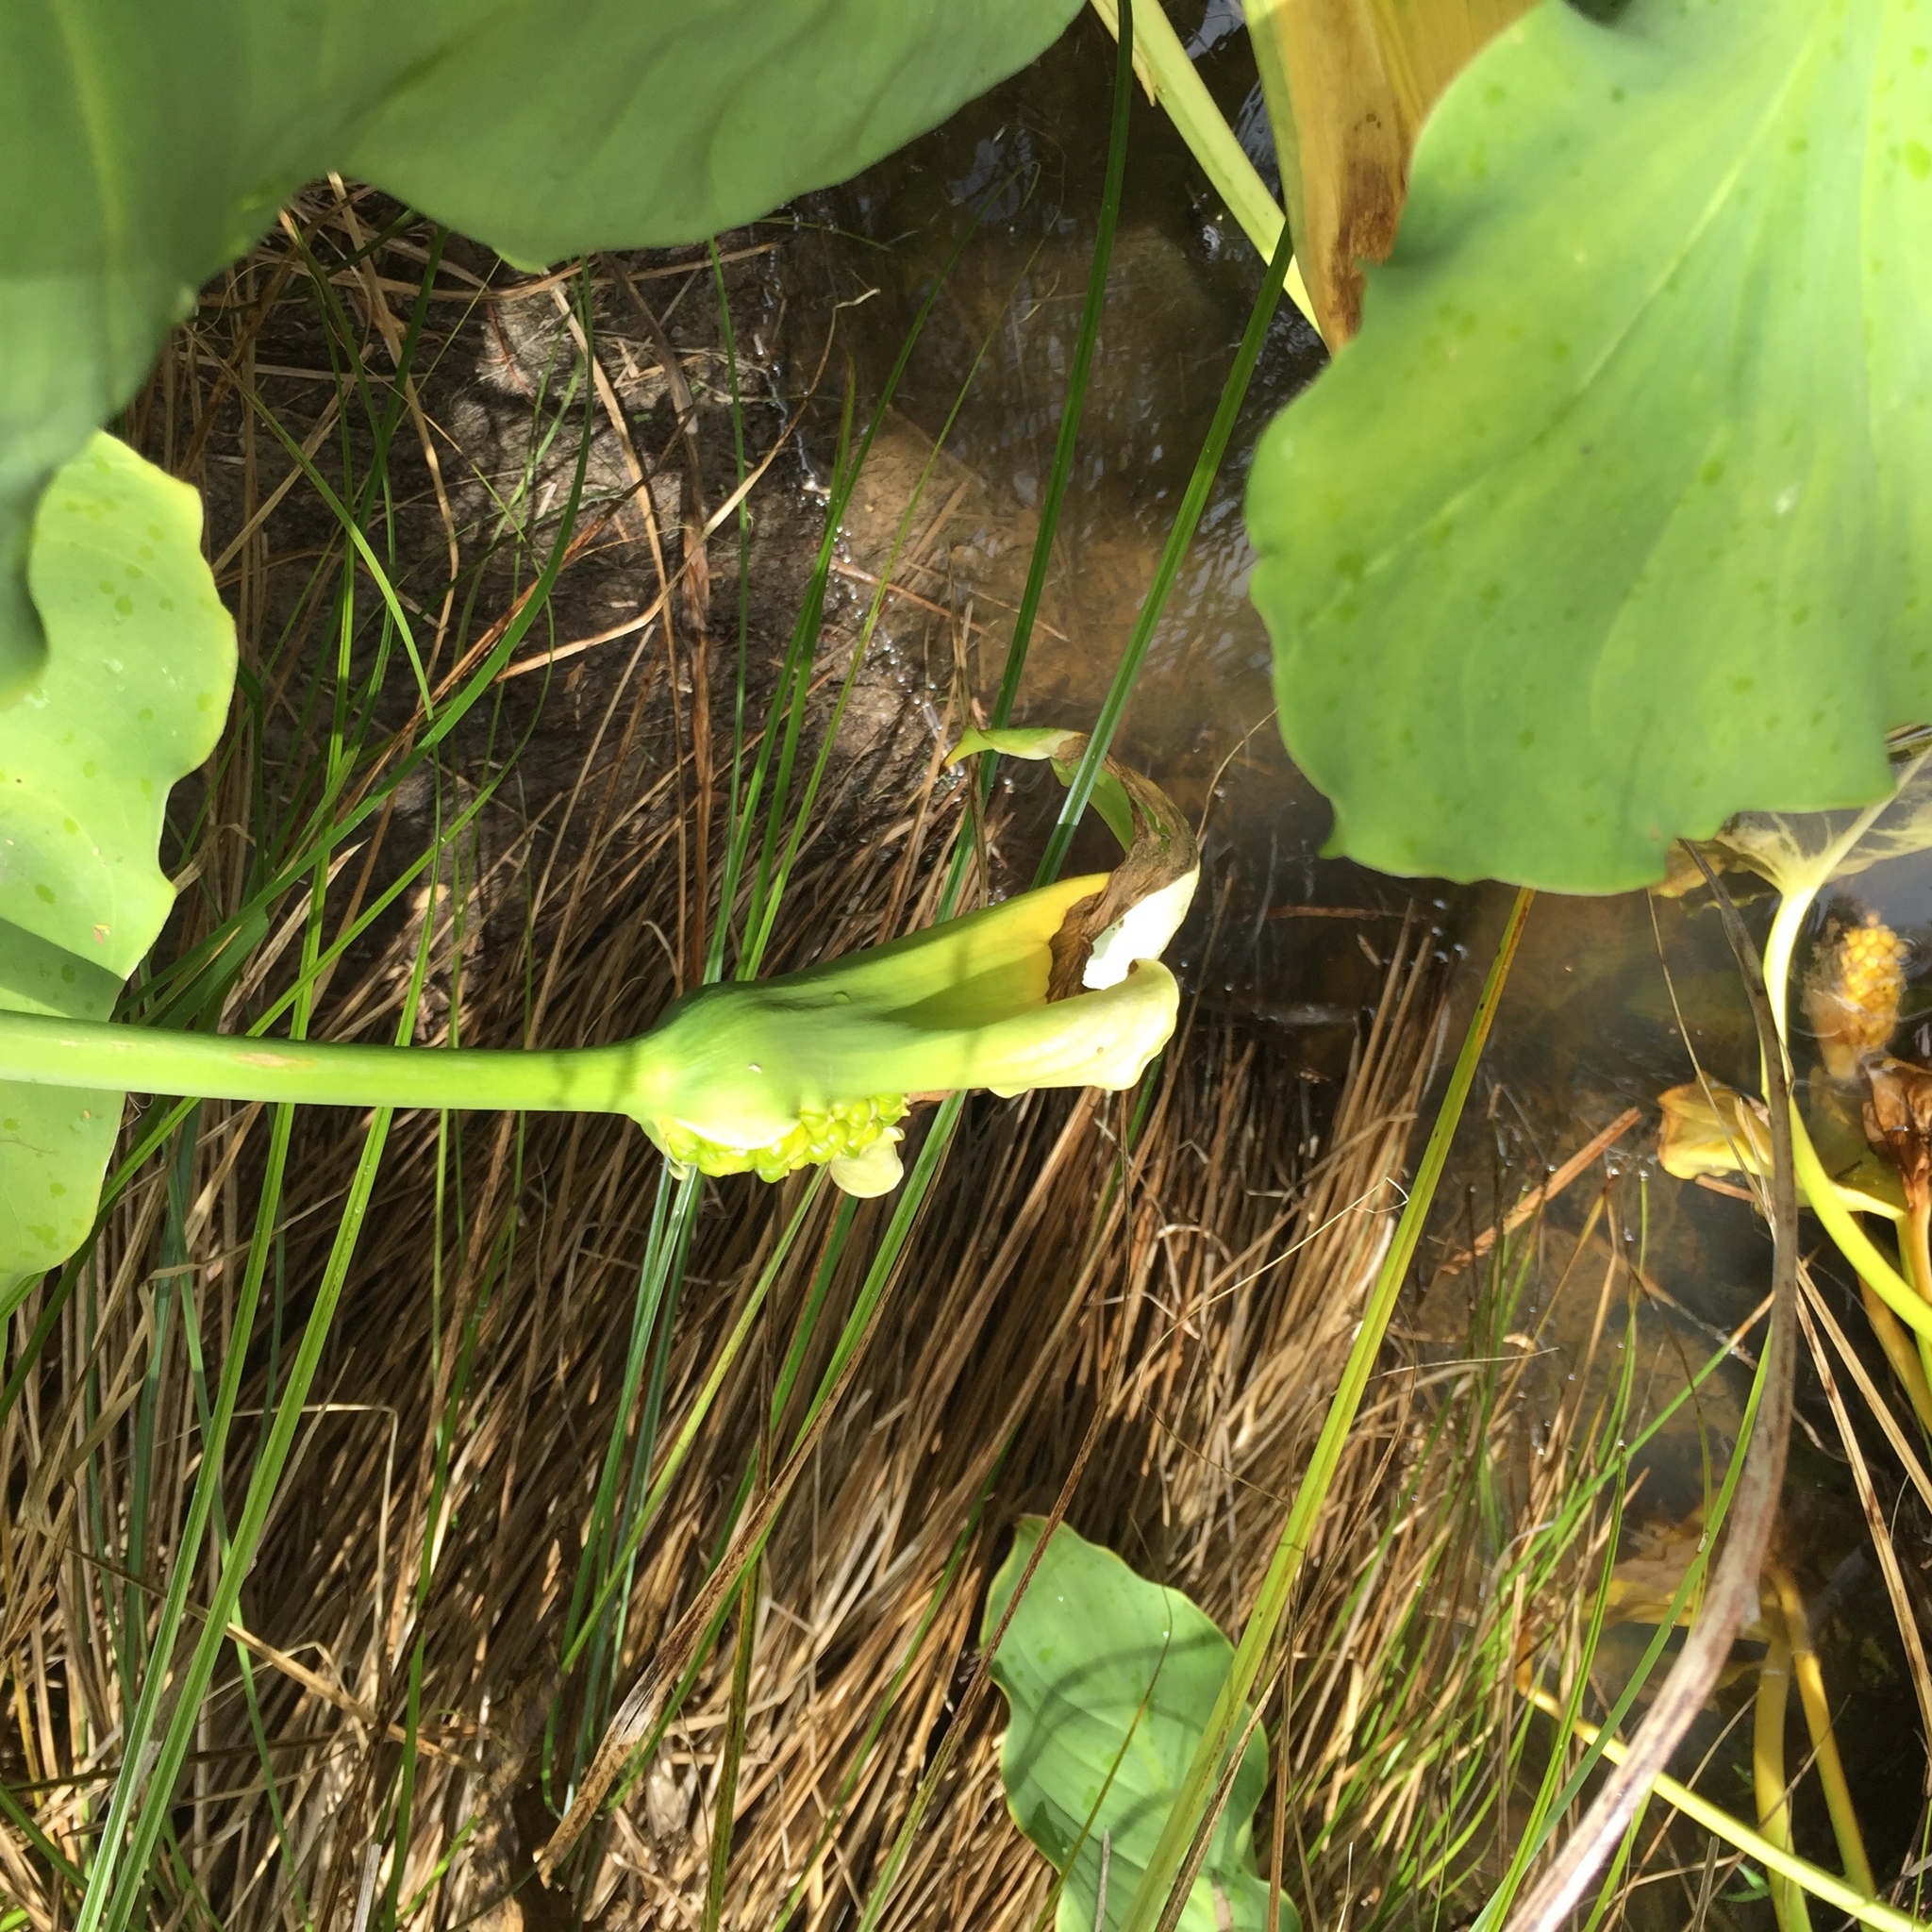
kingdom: Plantae
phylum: Tracheophyta
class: Liliopsida
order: Alismatales
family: Araceae
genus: Zantedeschia
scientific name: Zantedeschia aethiopica
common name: Altar-lily
